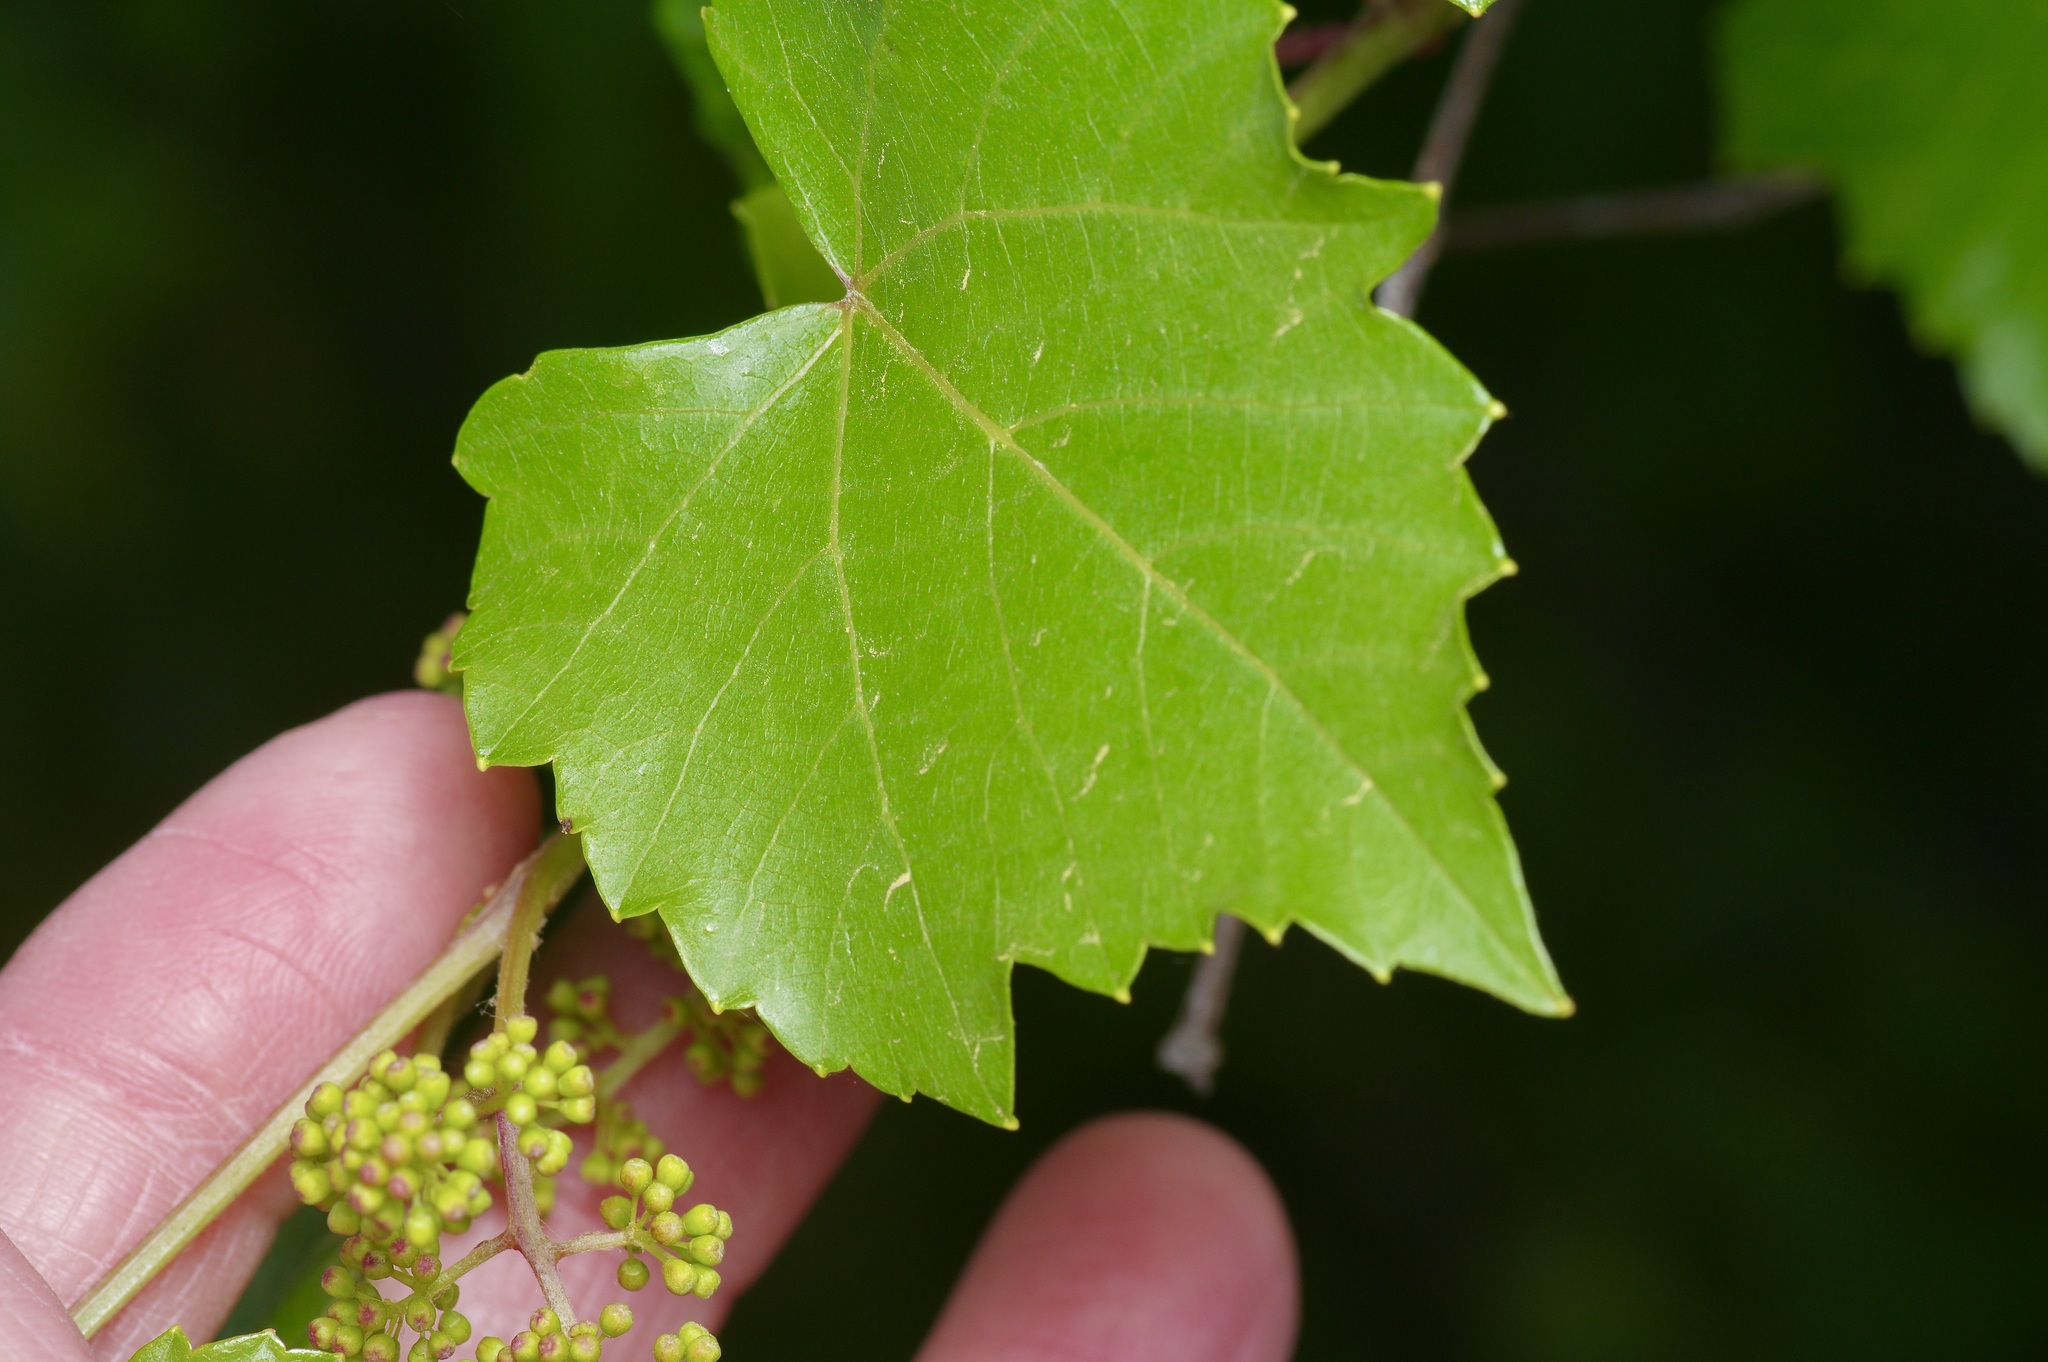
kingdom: Plantae
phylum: Tracheophyta
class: Magnoliopsida
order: Vitales
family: Vitaceae
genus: Vitis
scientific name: Vitis monticola
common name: Mountain grape
